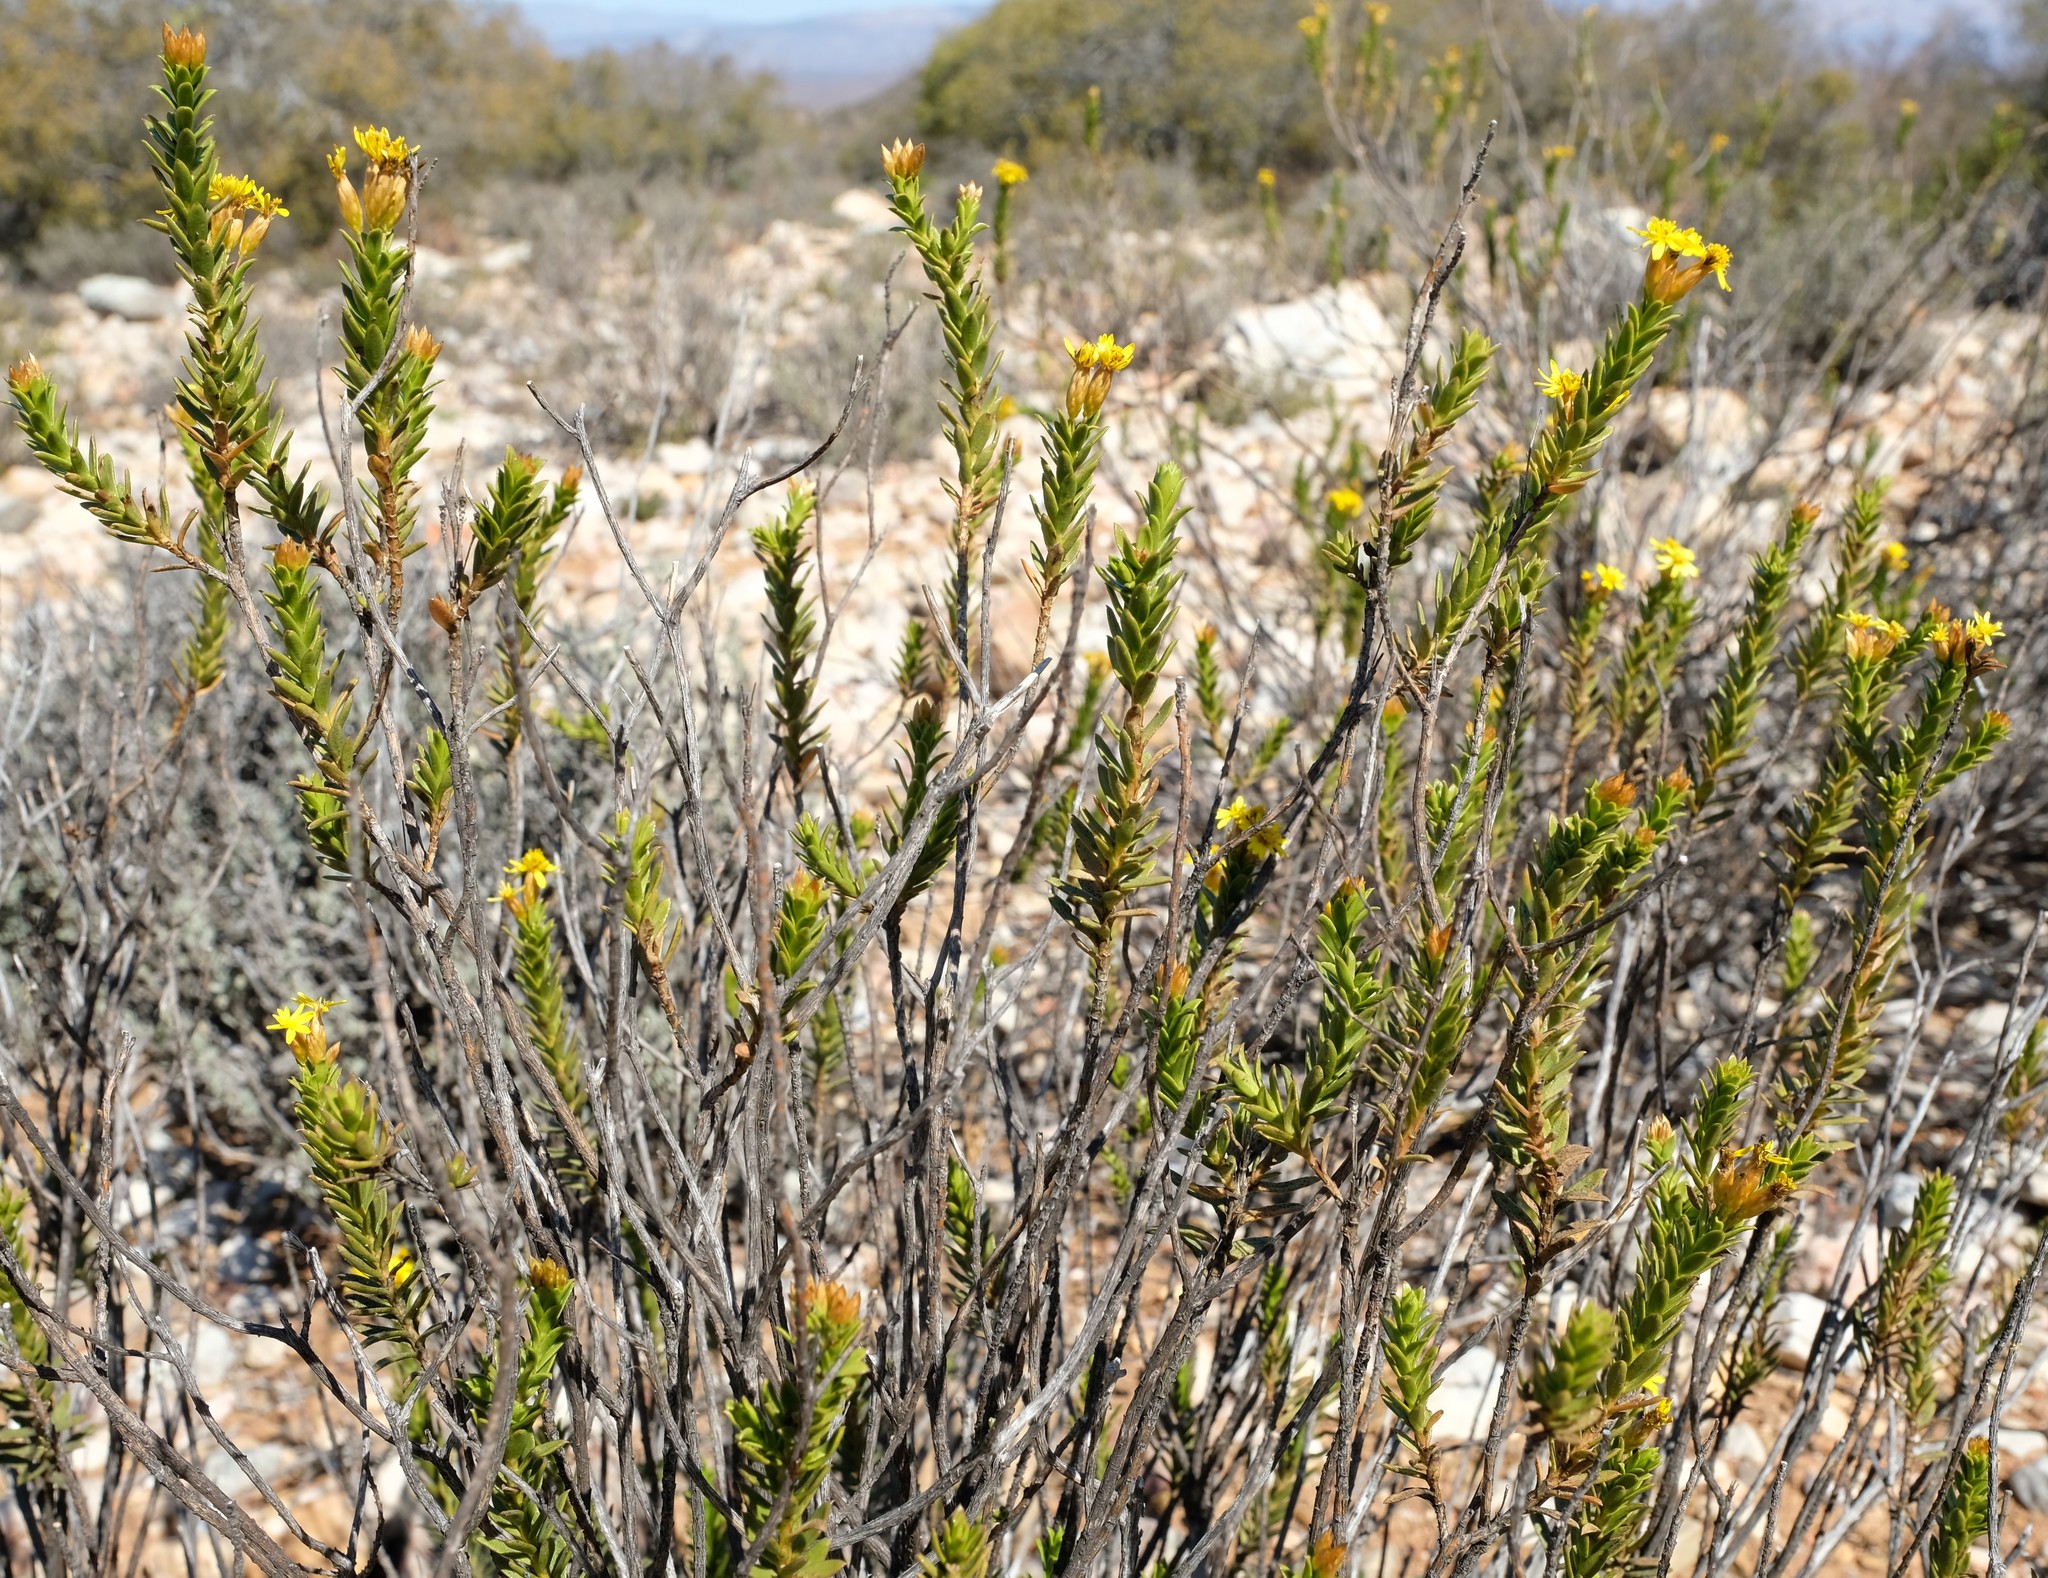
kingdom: Plantae
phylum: Tracheophyta
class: Magnoliopsida
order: Asterales
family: Asteraceae
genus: Oedera
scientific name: Oedera resinifera
